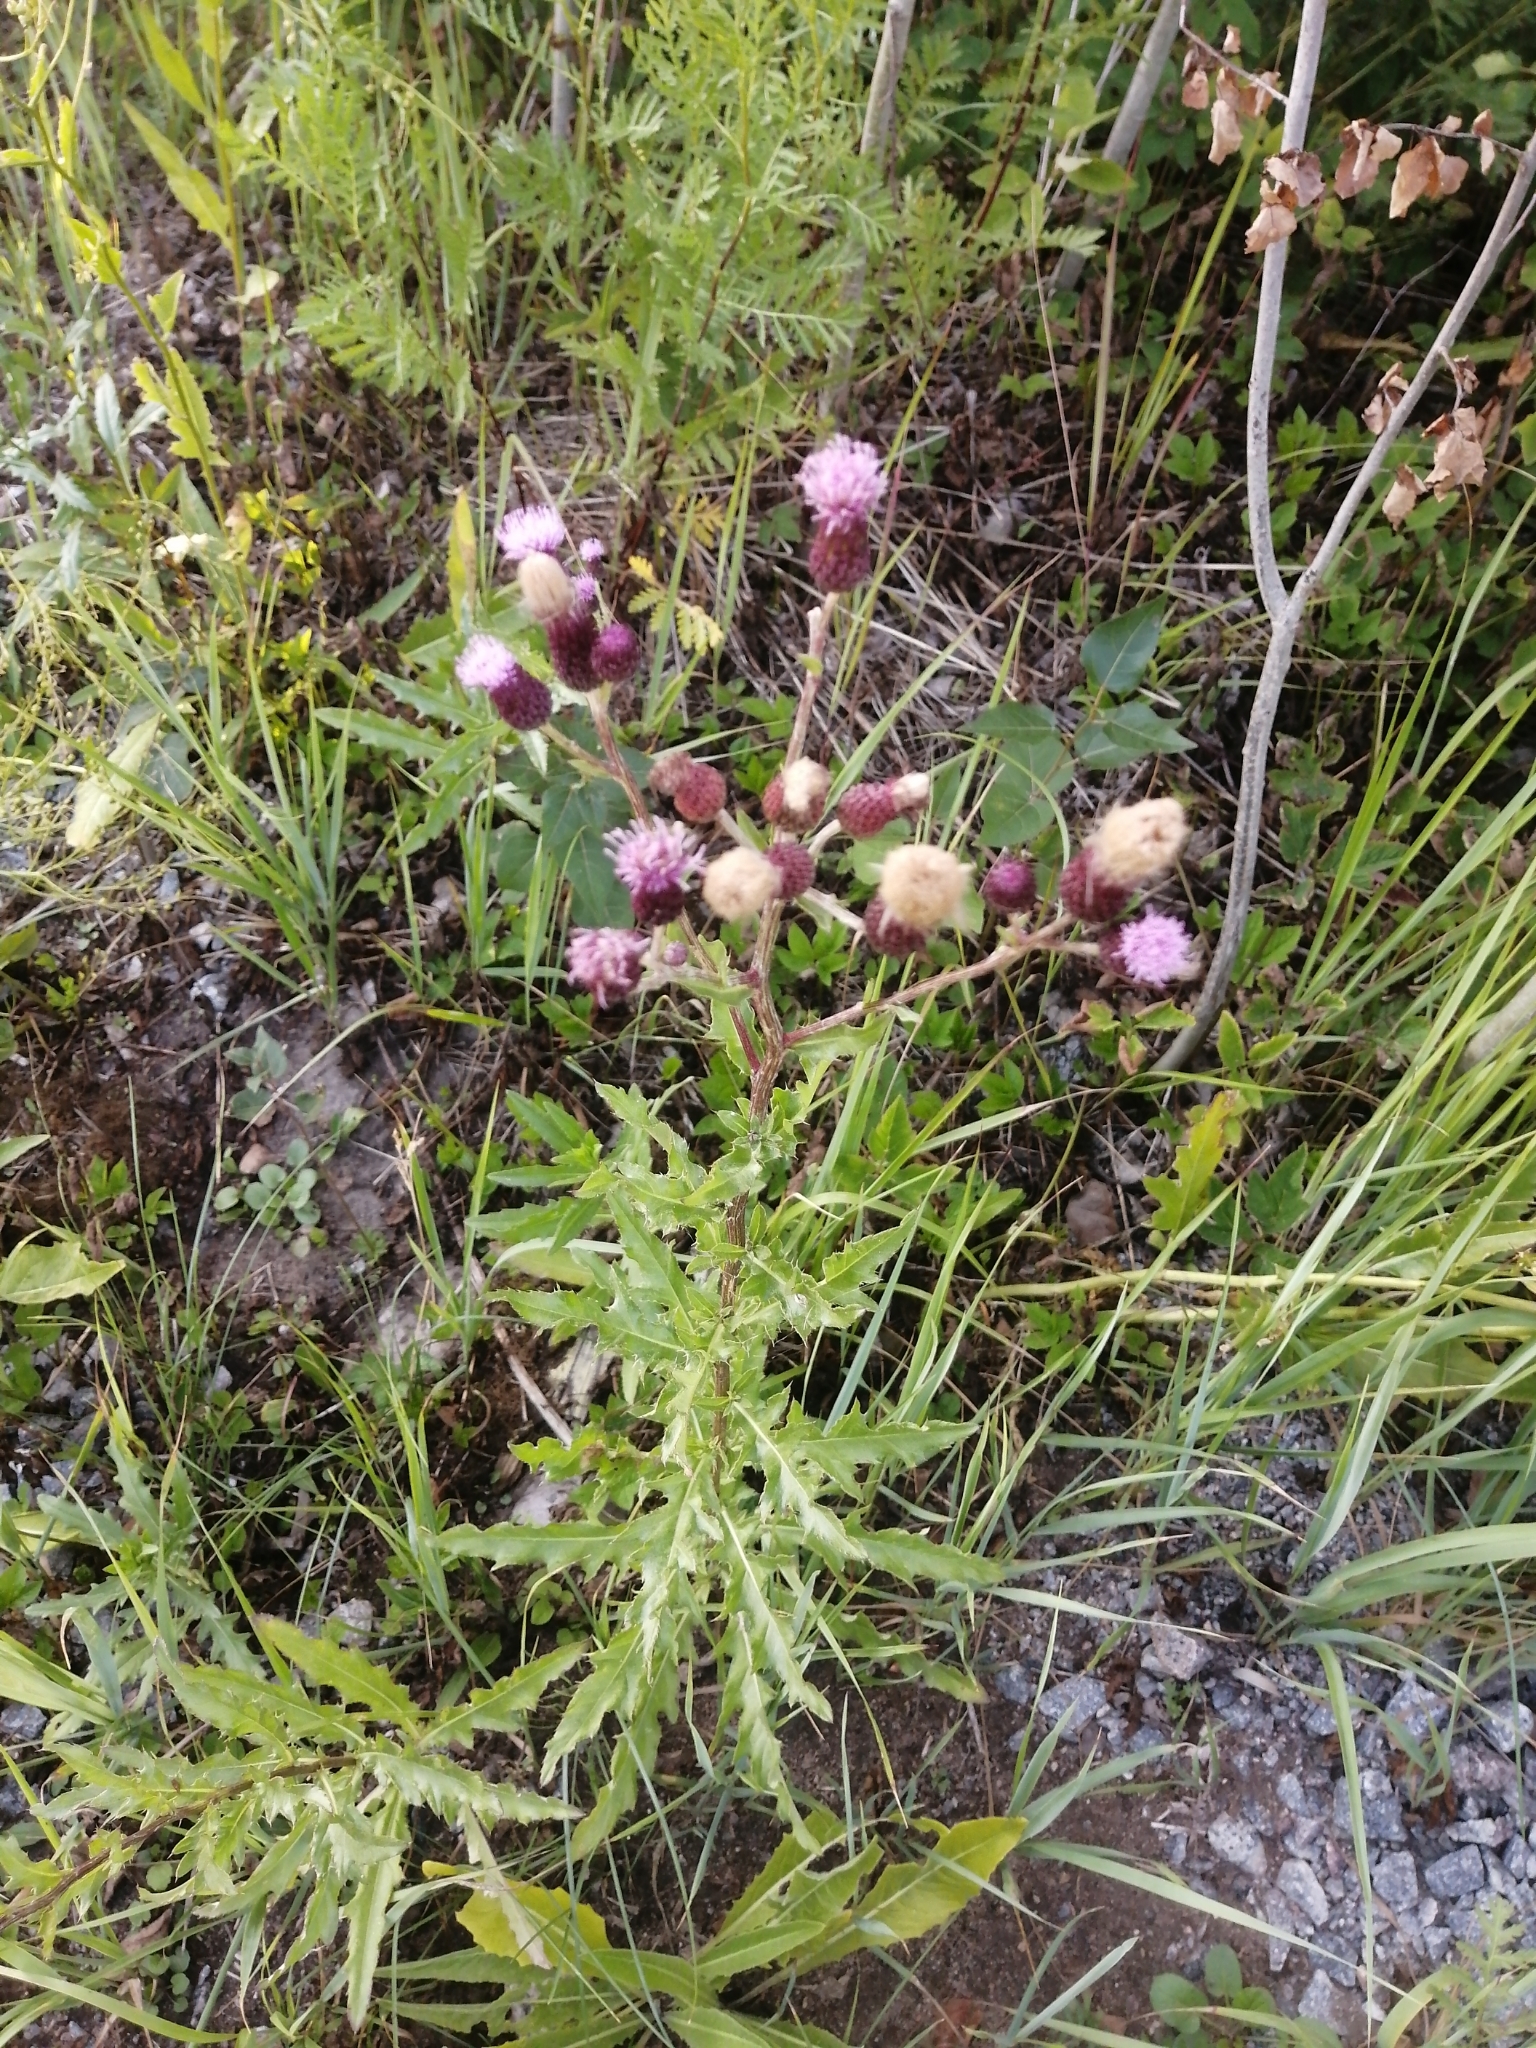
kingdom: Plantae
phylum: Tracheophyta
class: Magnoliopsida
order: Asterales
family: Asteraceae
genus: Cirsium
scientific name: Cirsium arvense
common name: Creeping thistle
